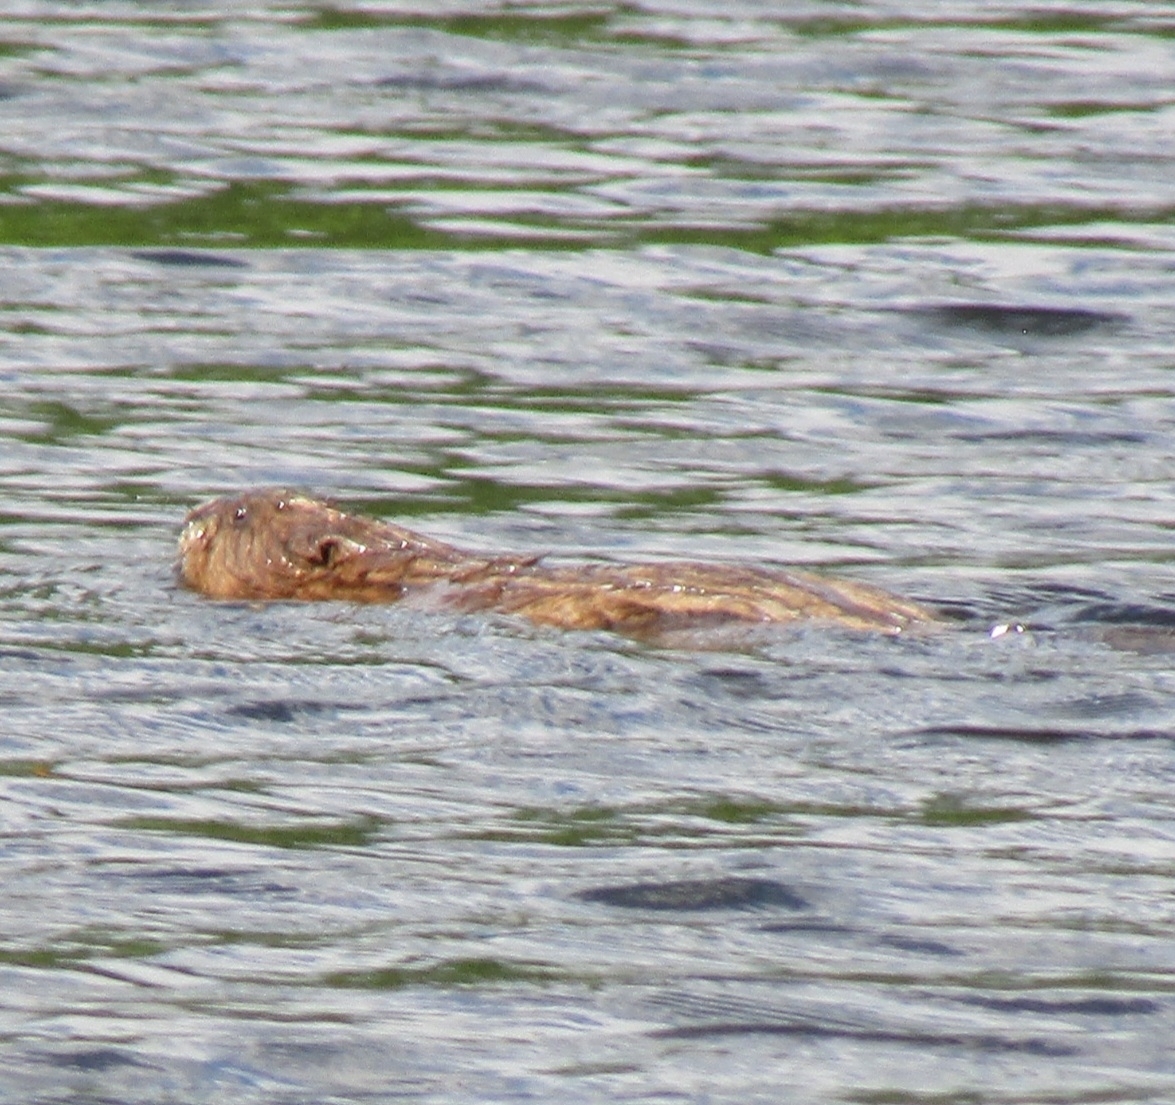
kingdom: Animalia
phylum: Chordata
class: Mammalia
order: Rodentia
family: Cricetidae
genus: Ondatra
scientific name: Ondatra zibethicus
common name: Muskrat
